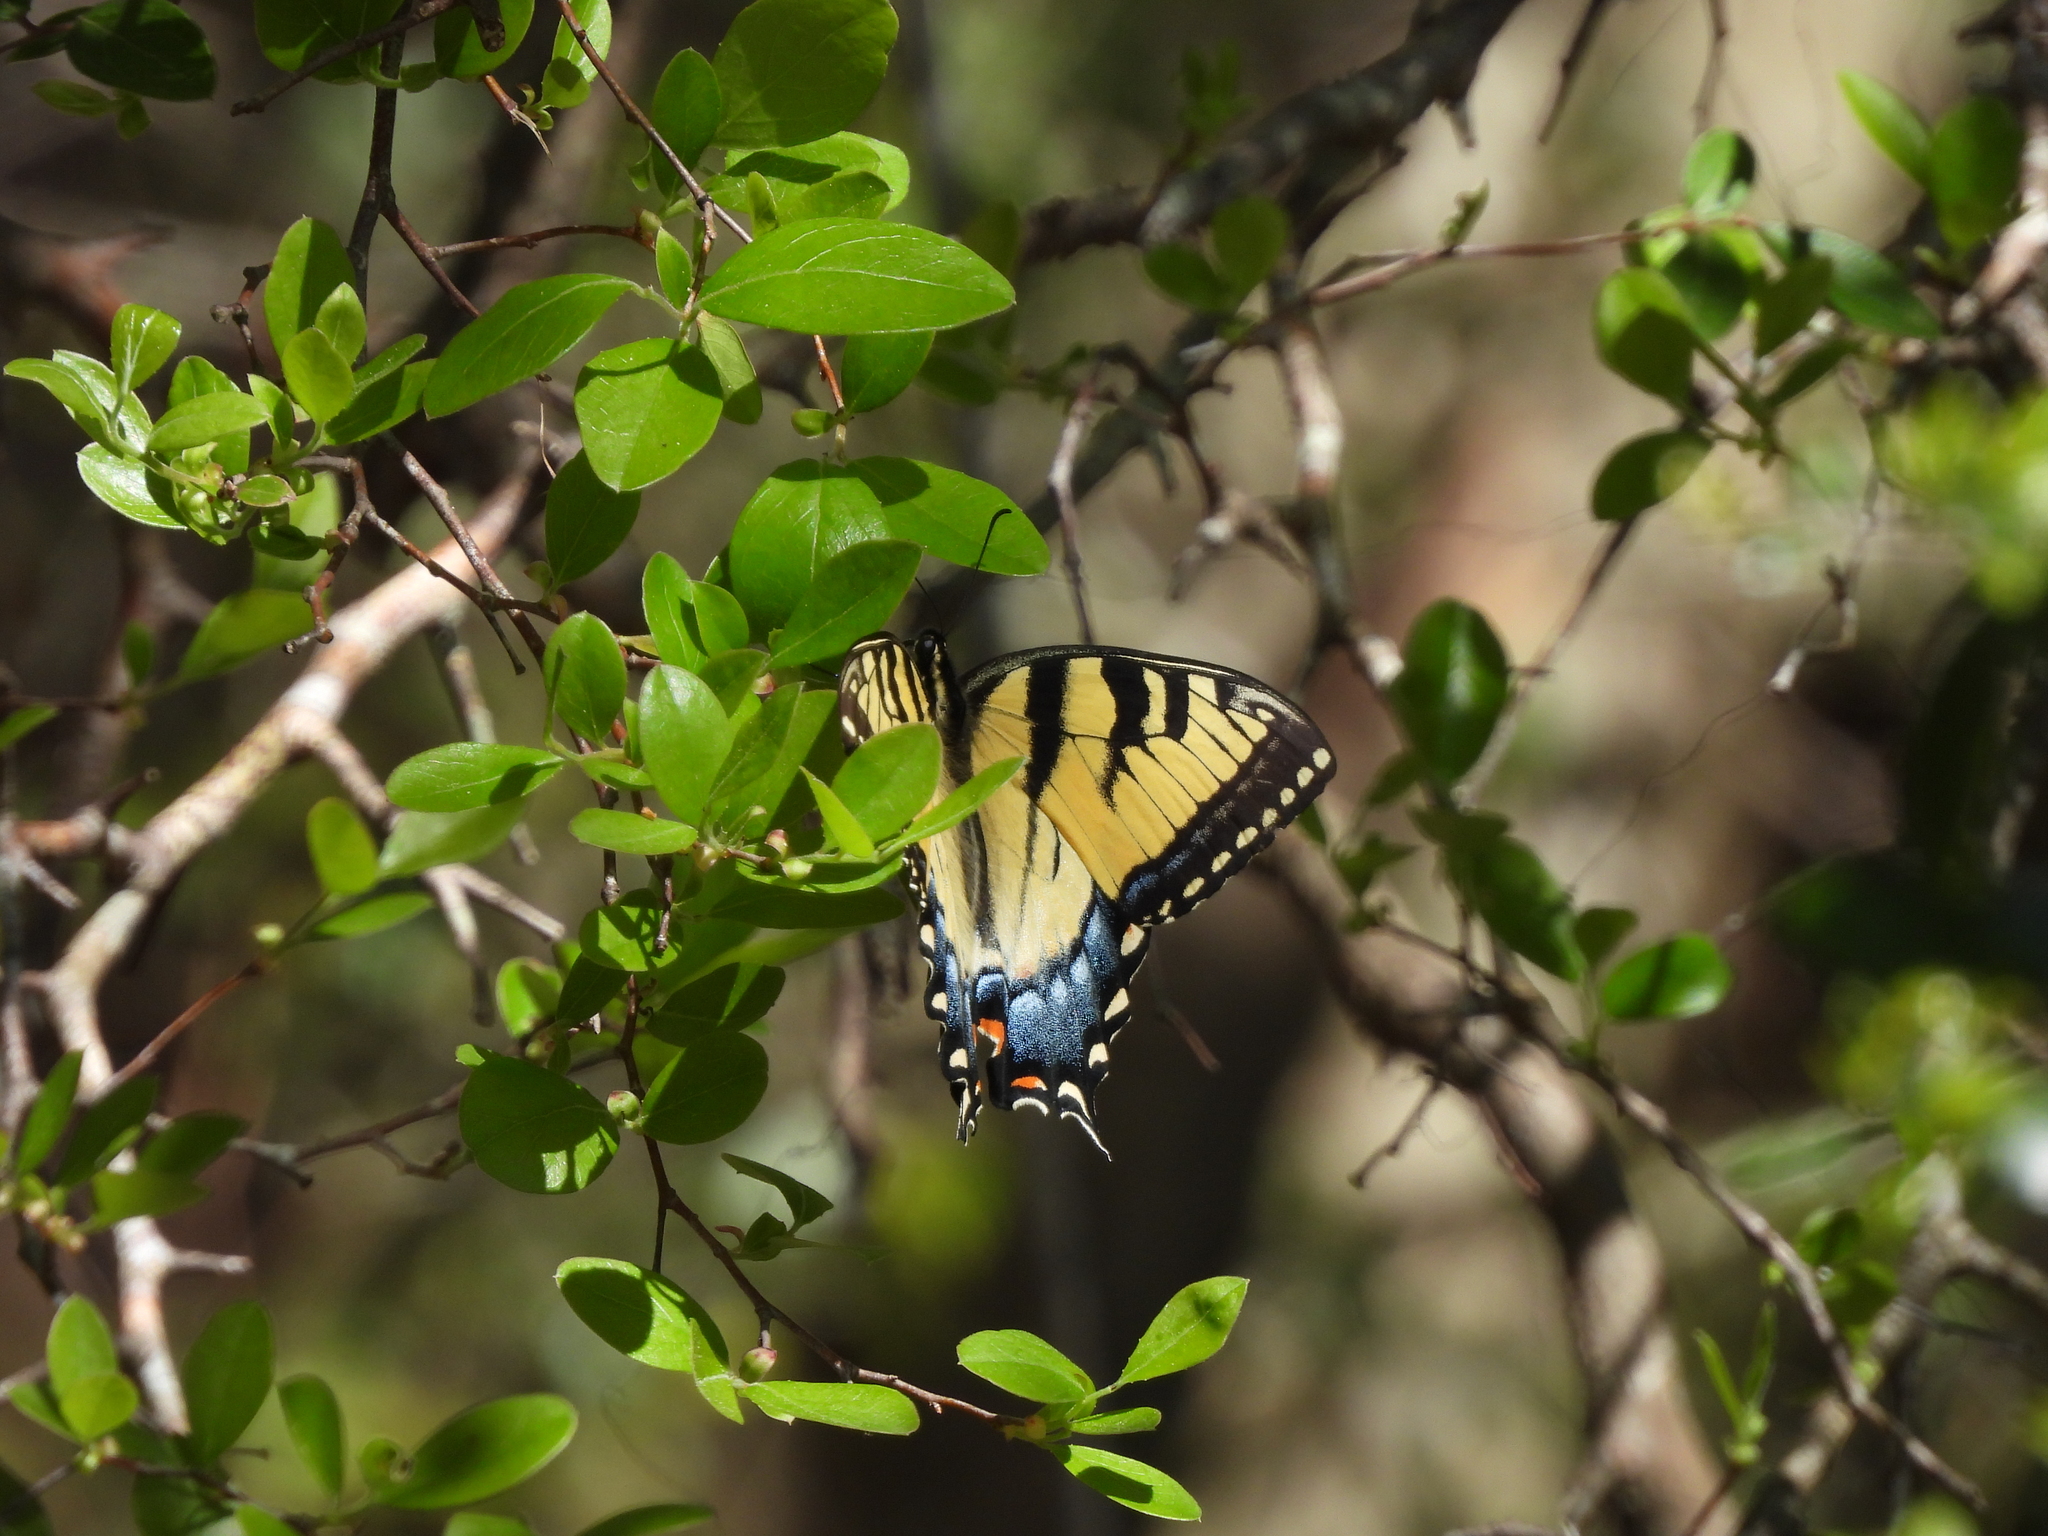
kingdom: Animalia
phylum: Arthropoda
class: Insecta
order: Lepidoptera
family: Papilionidae
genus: Papilio
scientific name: Papilio glaucus
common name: Tiger swallowtail
